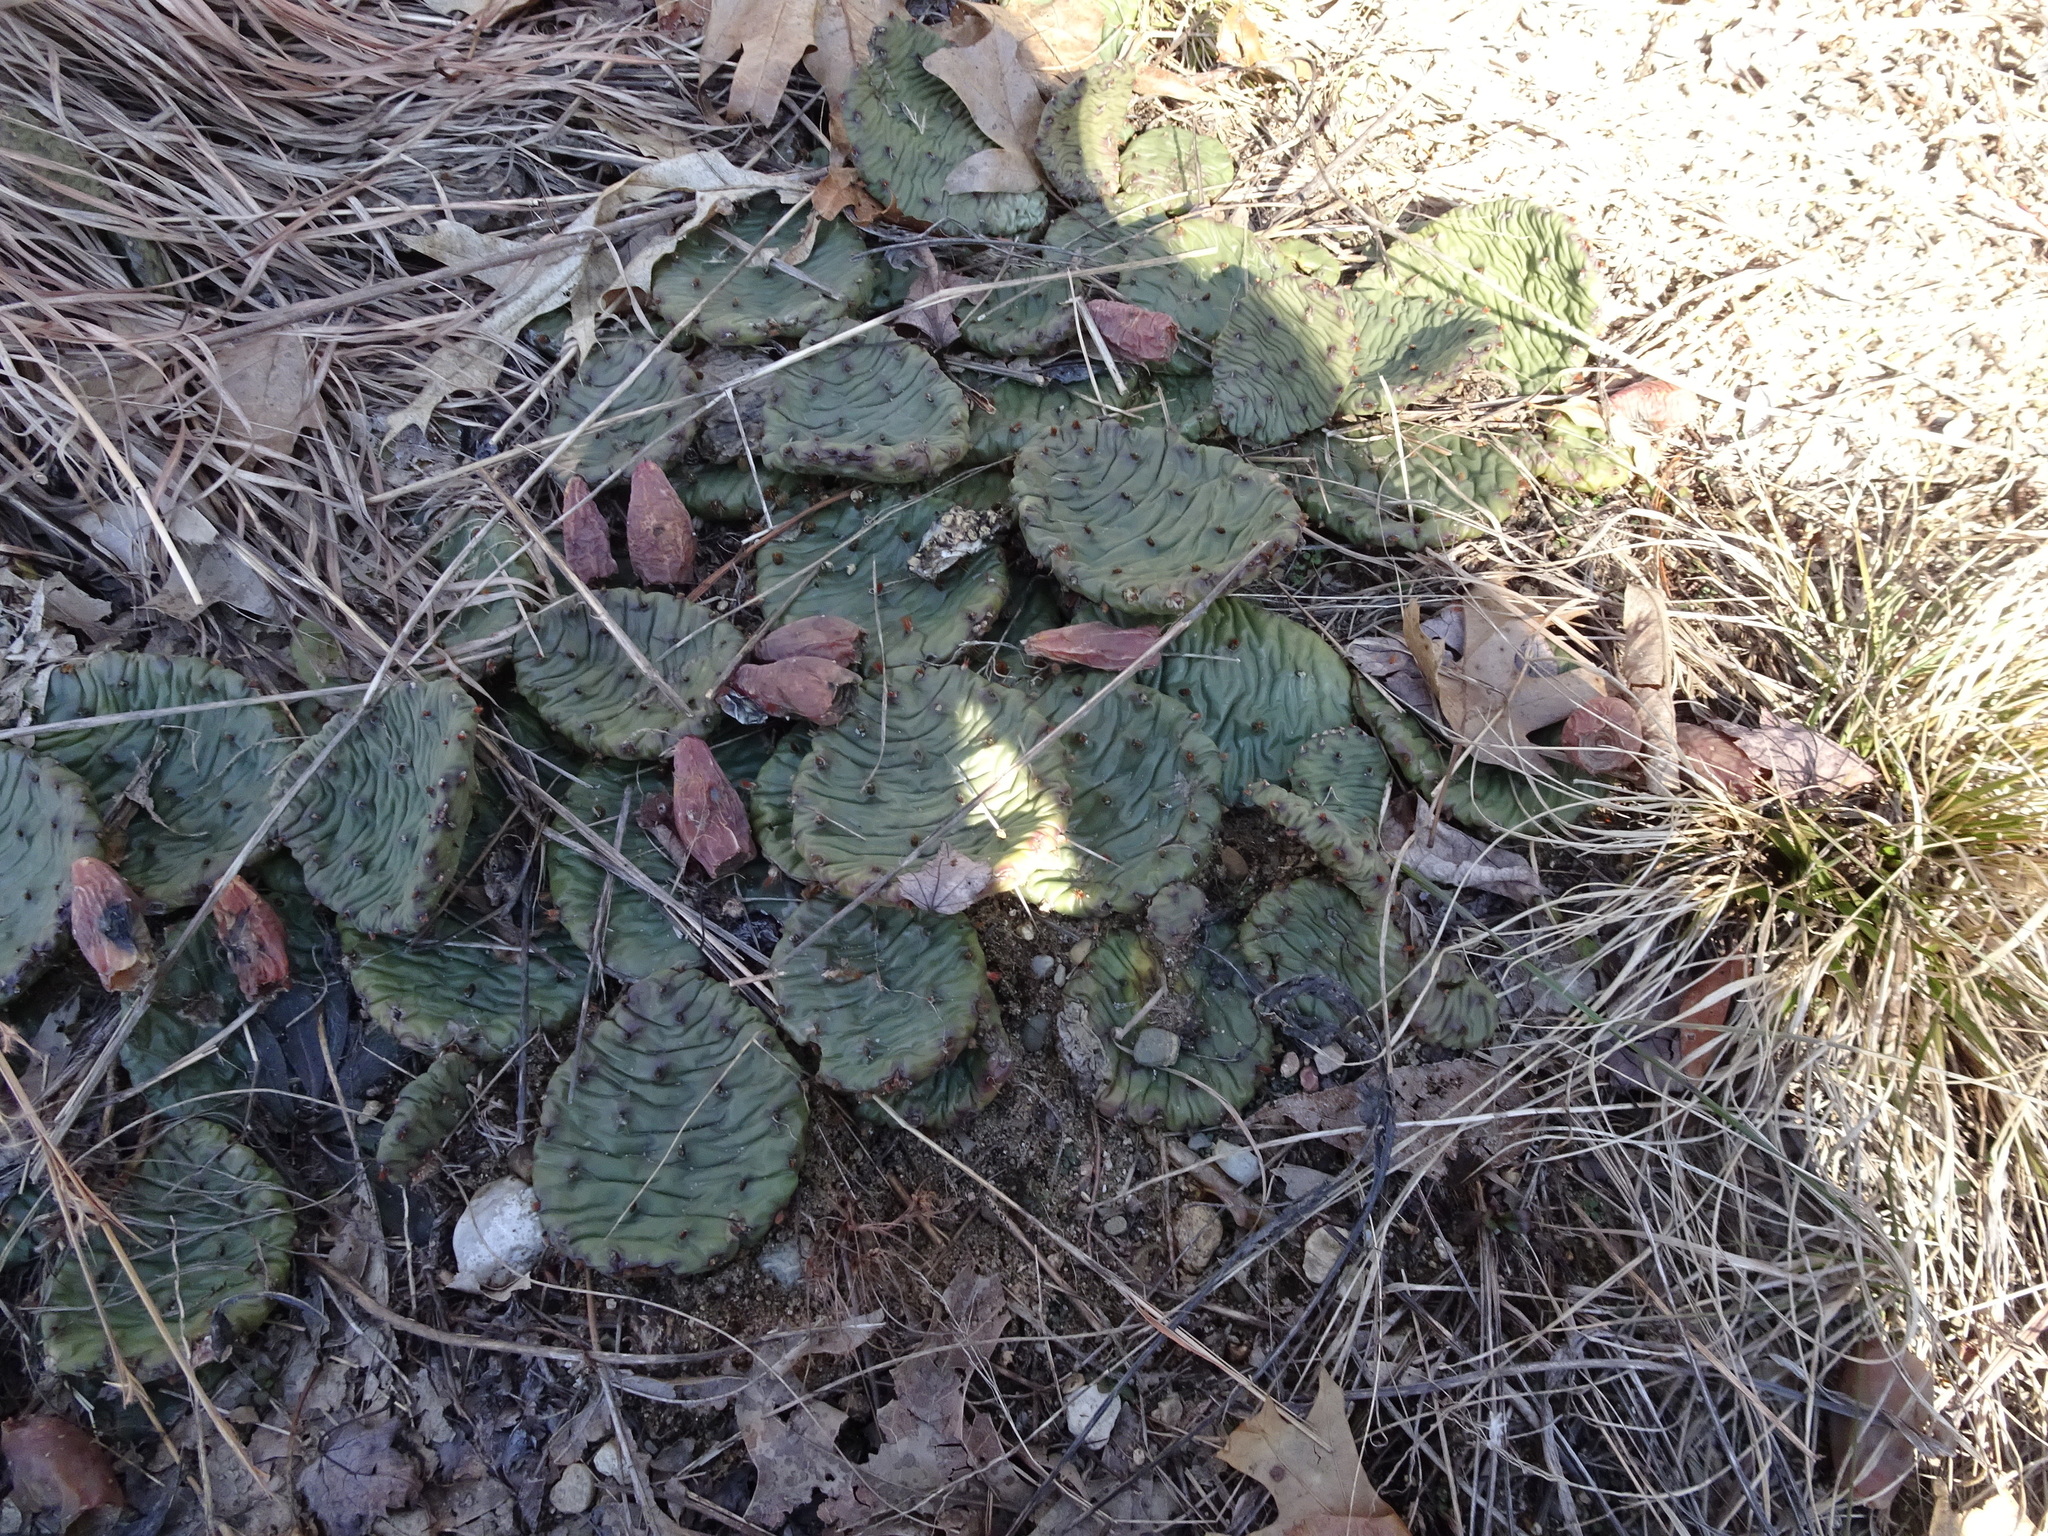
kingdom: Plantae
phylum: Tracheophyta
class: Magnoliopsida
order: Caryophyllales
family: Cactaceae
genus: Opuntia
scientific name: Opuntia humifusa
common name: Eastern prickly-pear
